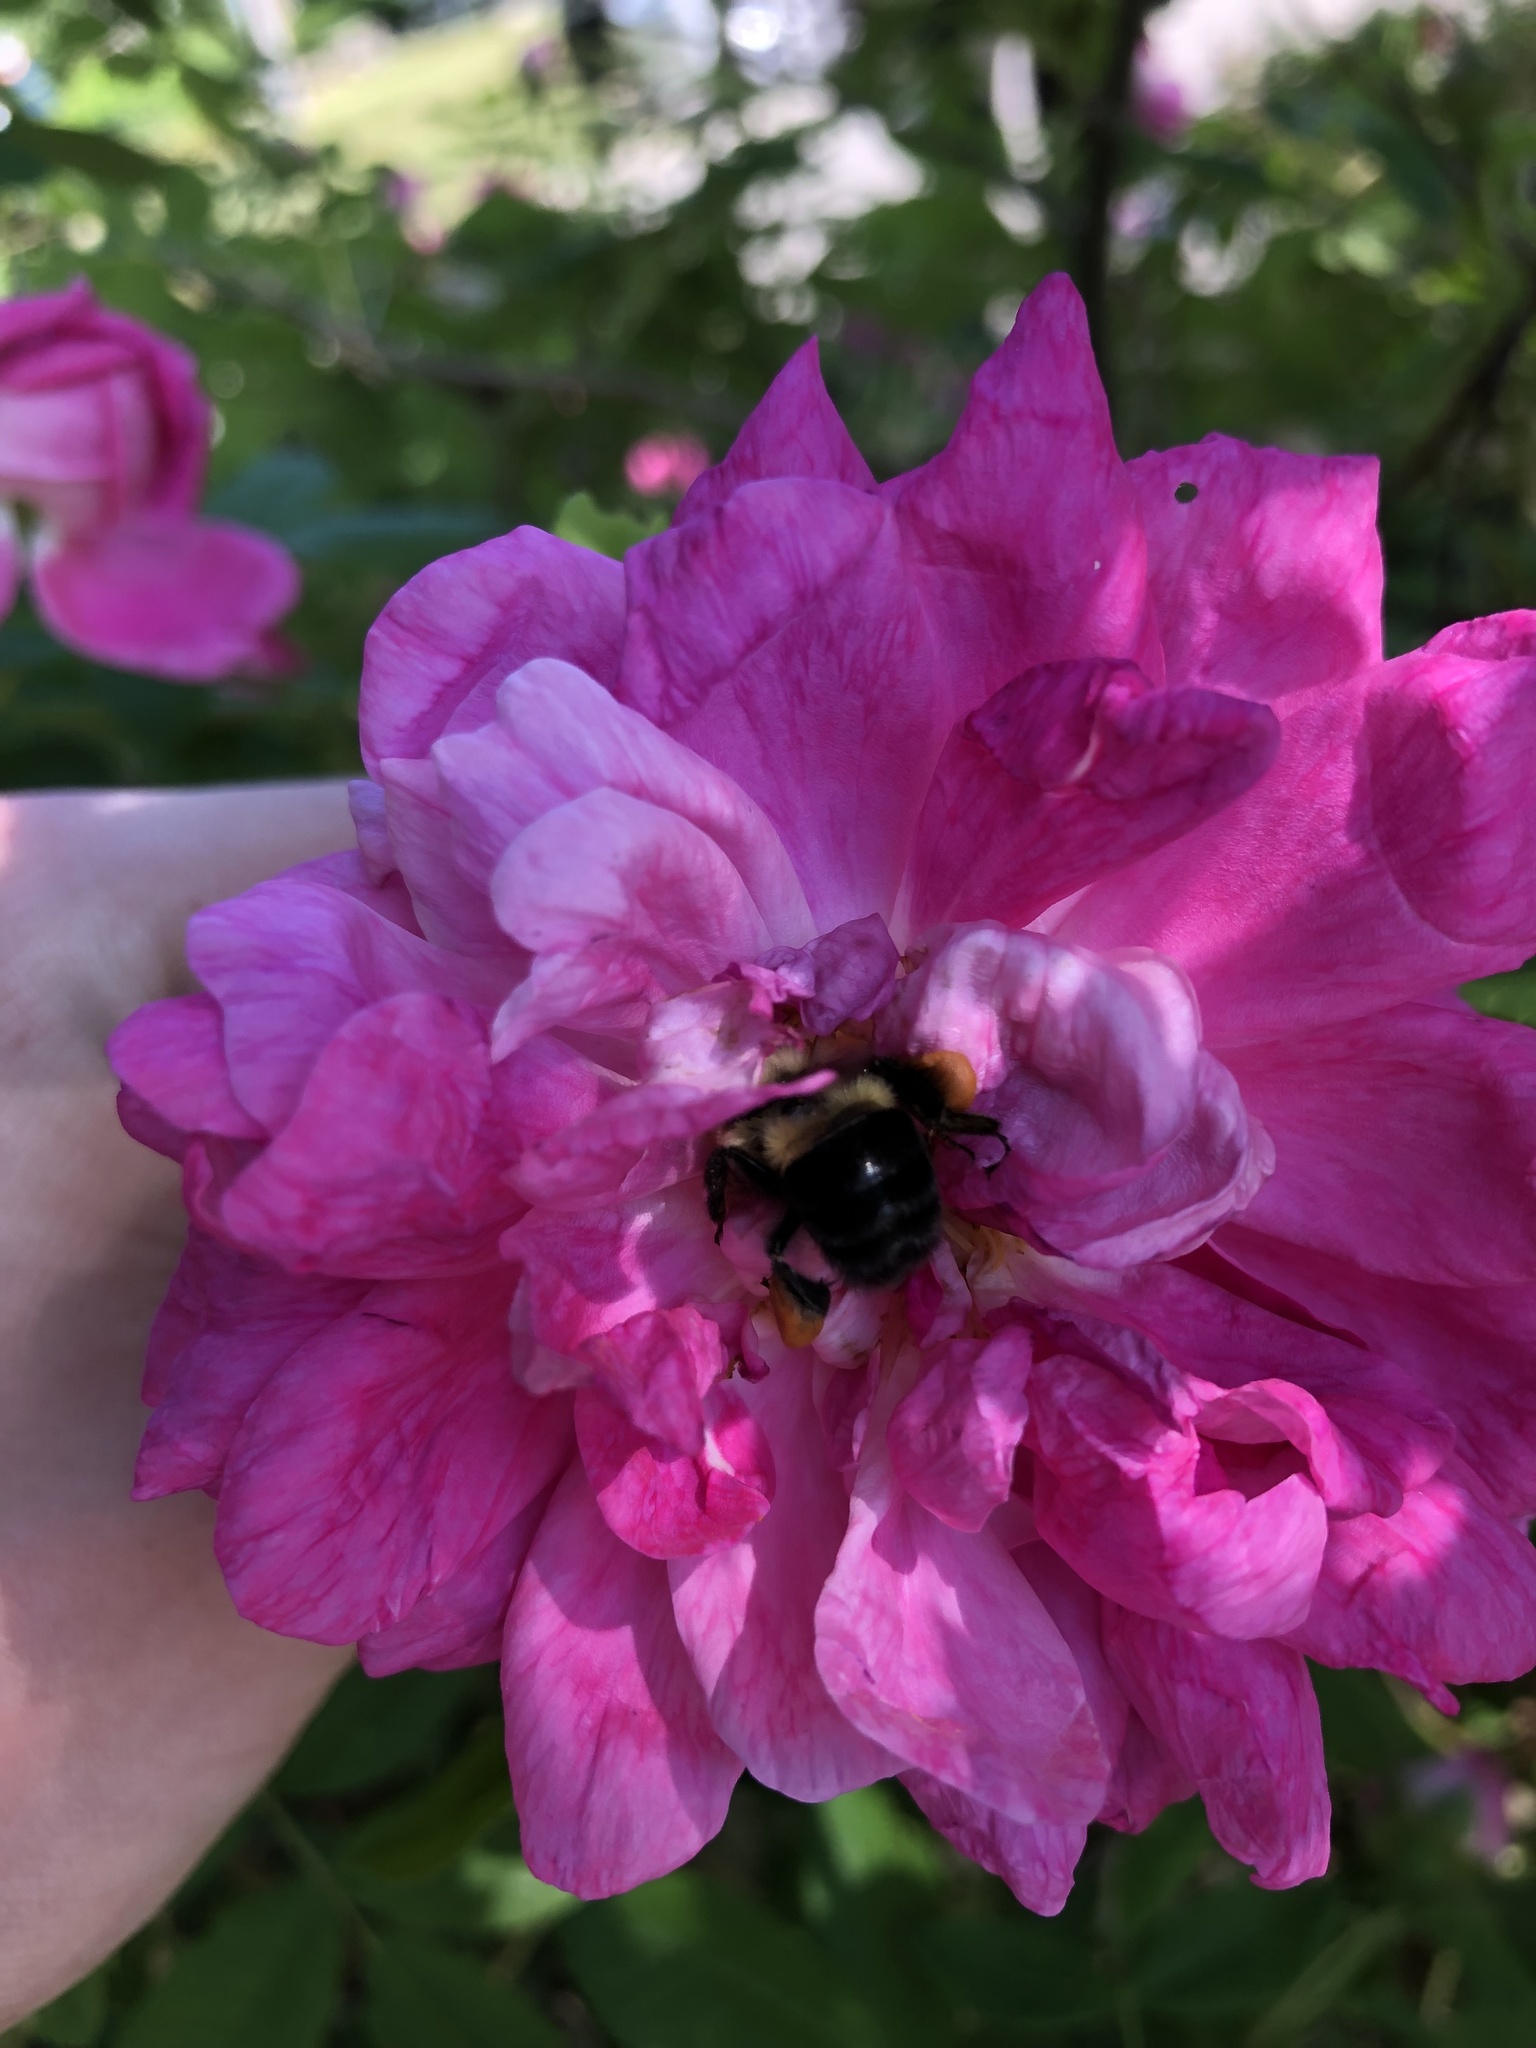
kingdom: Animalia
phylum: Arthropoda
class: Insecta
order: Hymenoptera
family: Apidae
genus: Bombus
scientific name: Bombus impatiens
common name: Common eastern bumble bee
